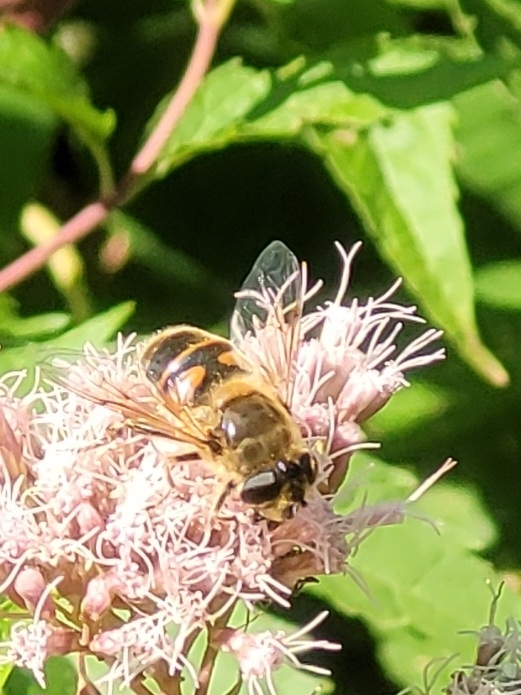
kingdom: Animalia
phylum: Arthropoda
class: Insecta
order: Diptera
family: Syrphidae
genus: Eristalis
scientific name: Eristalis tenax
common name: Drone fly
